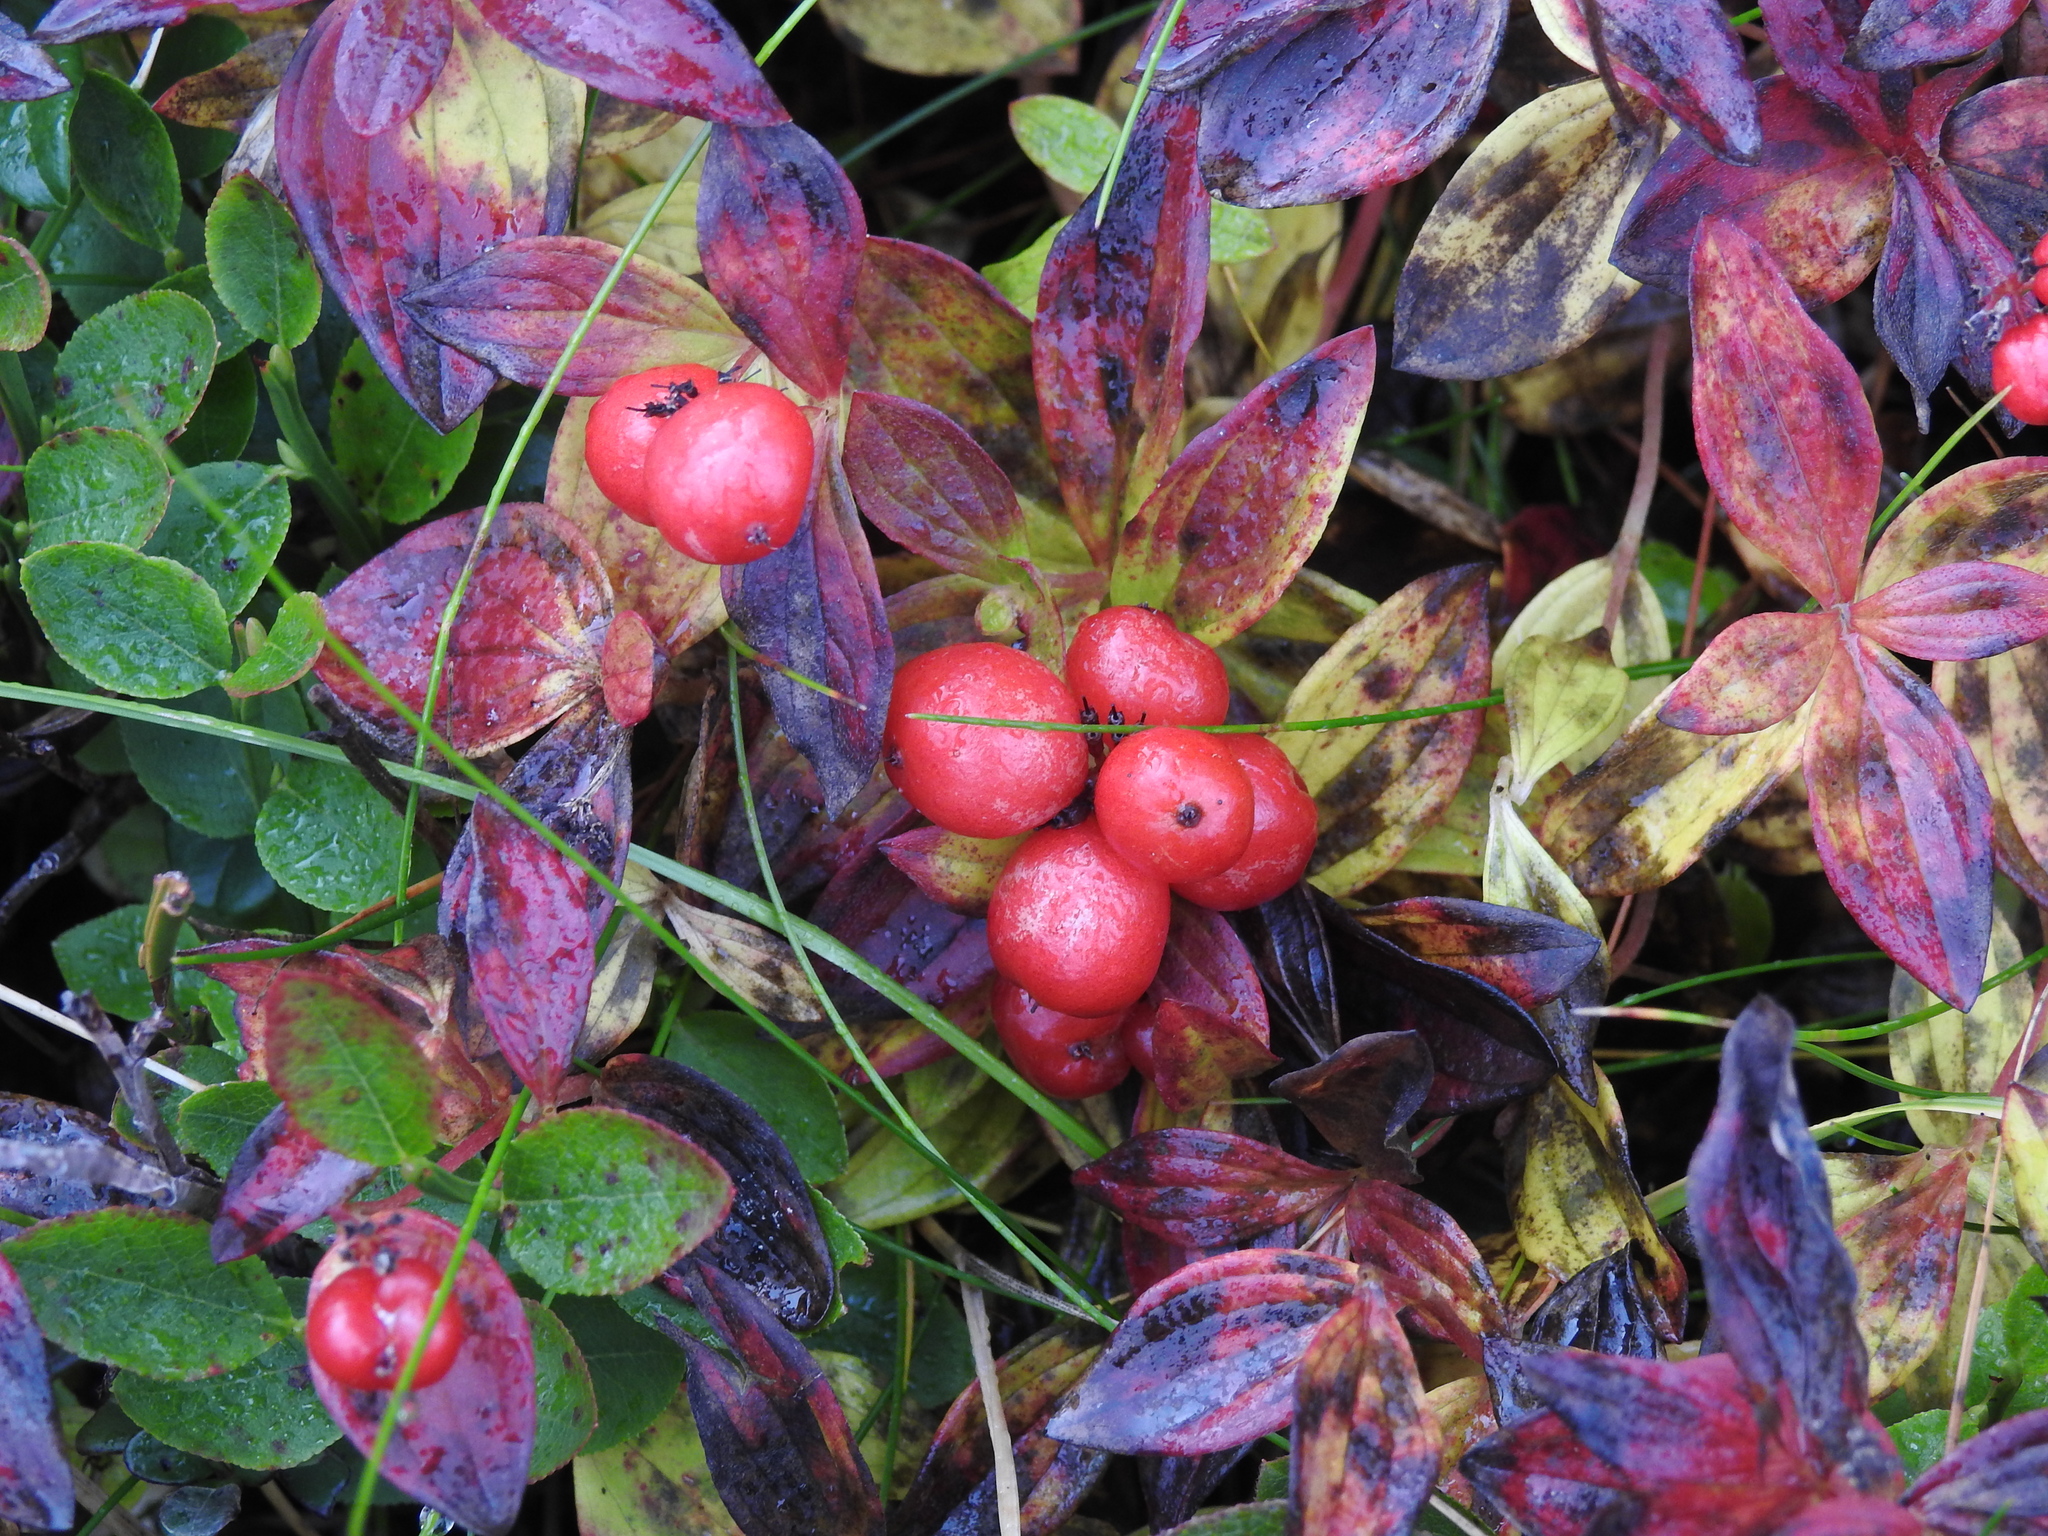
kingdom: Plantae
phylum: Tracheophyta
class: Magnoliopsida
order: Cornales
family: Cornaceae
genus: Cornus
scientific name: Cornus suecica
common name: Dwarf cornel
